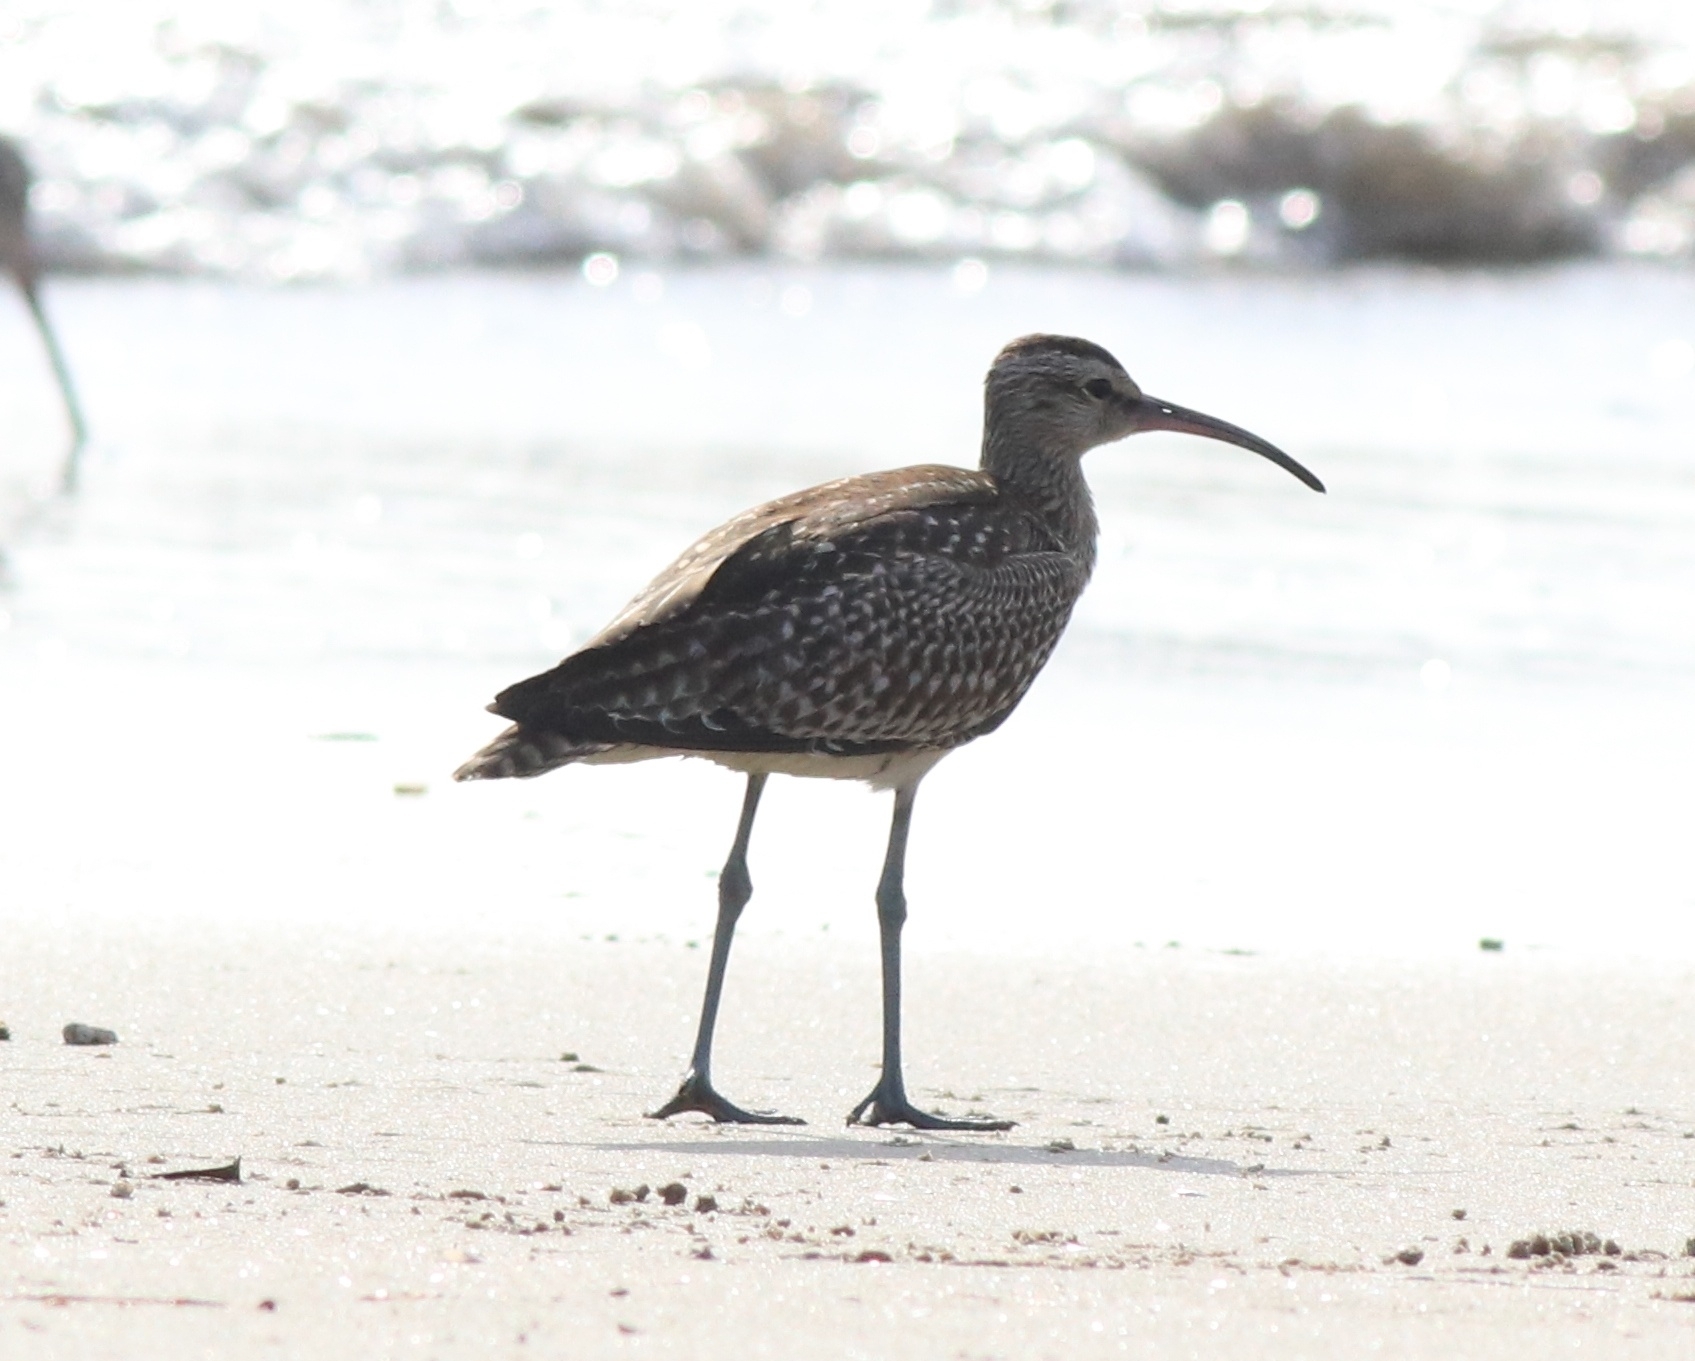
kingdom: Animalia
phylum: Chordata
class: Aves
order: Charadriiformes
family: Scolopacidae
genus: Numenius
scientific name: Numenius phaeopus
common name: Whimbrel
